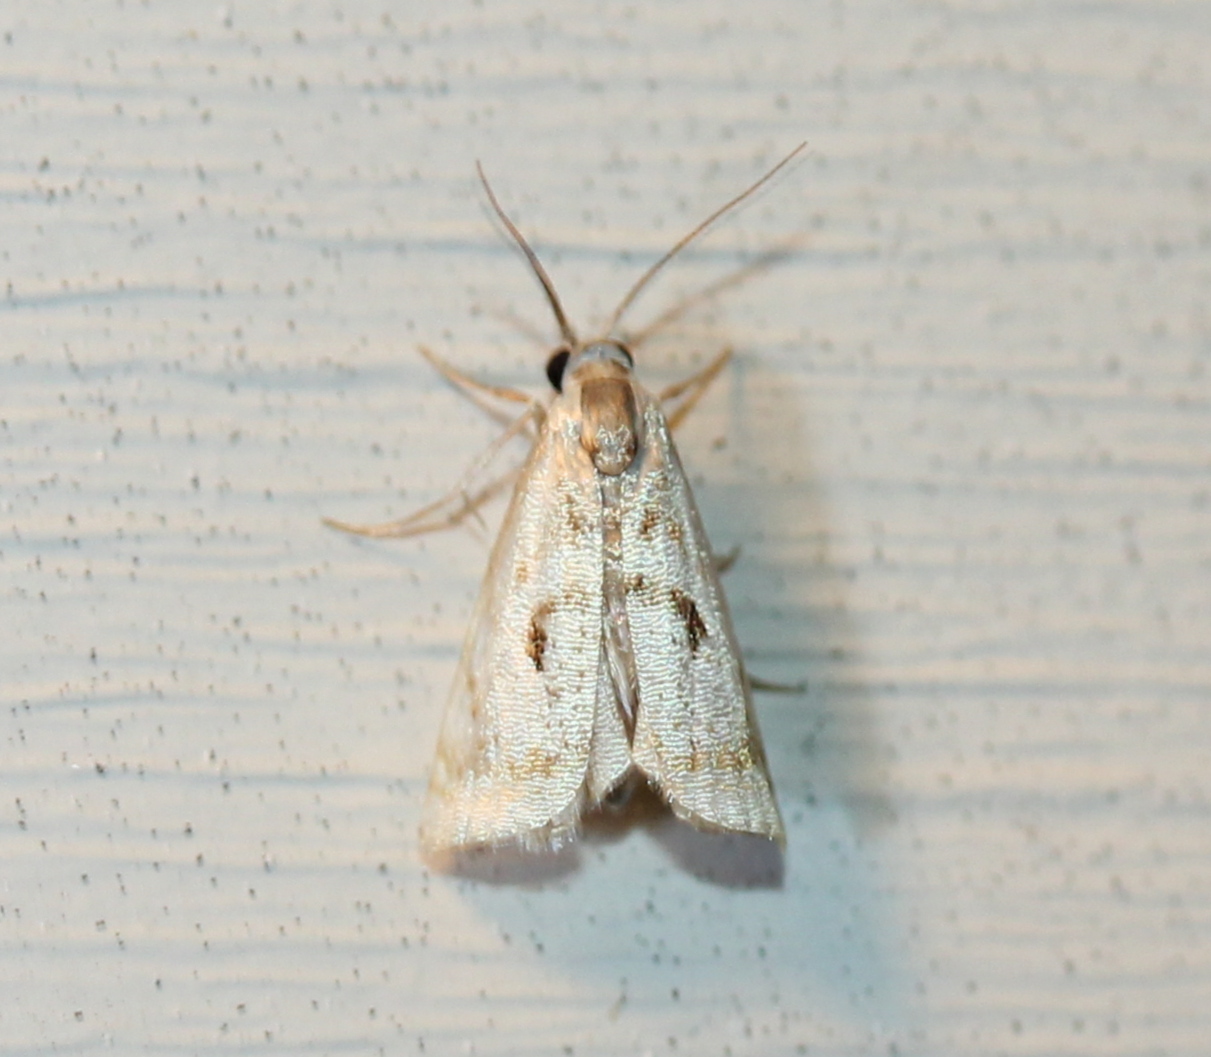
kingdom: Animalia
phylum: Arthropoda
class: Insecta
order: Lepidoptera
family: Crambidae
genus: Microcrambus
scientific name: Microcrambus elegans
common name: Elegant grass-veneer
